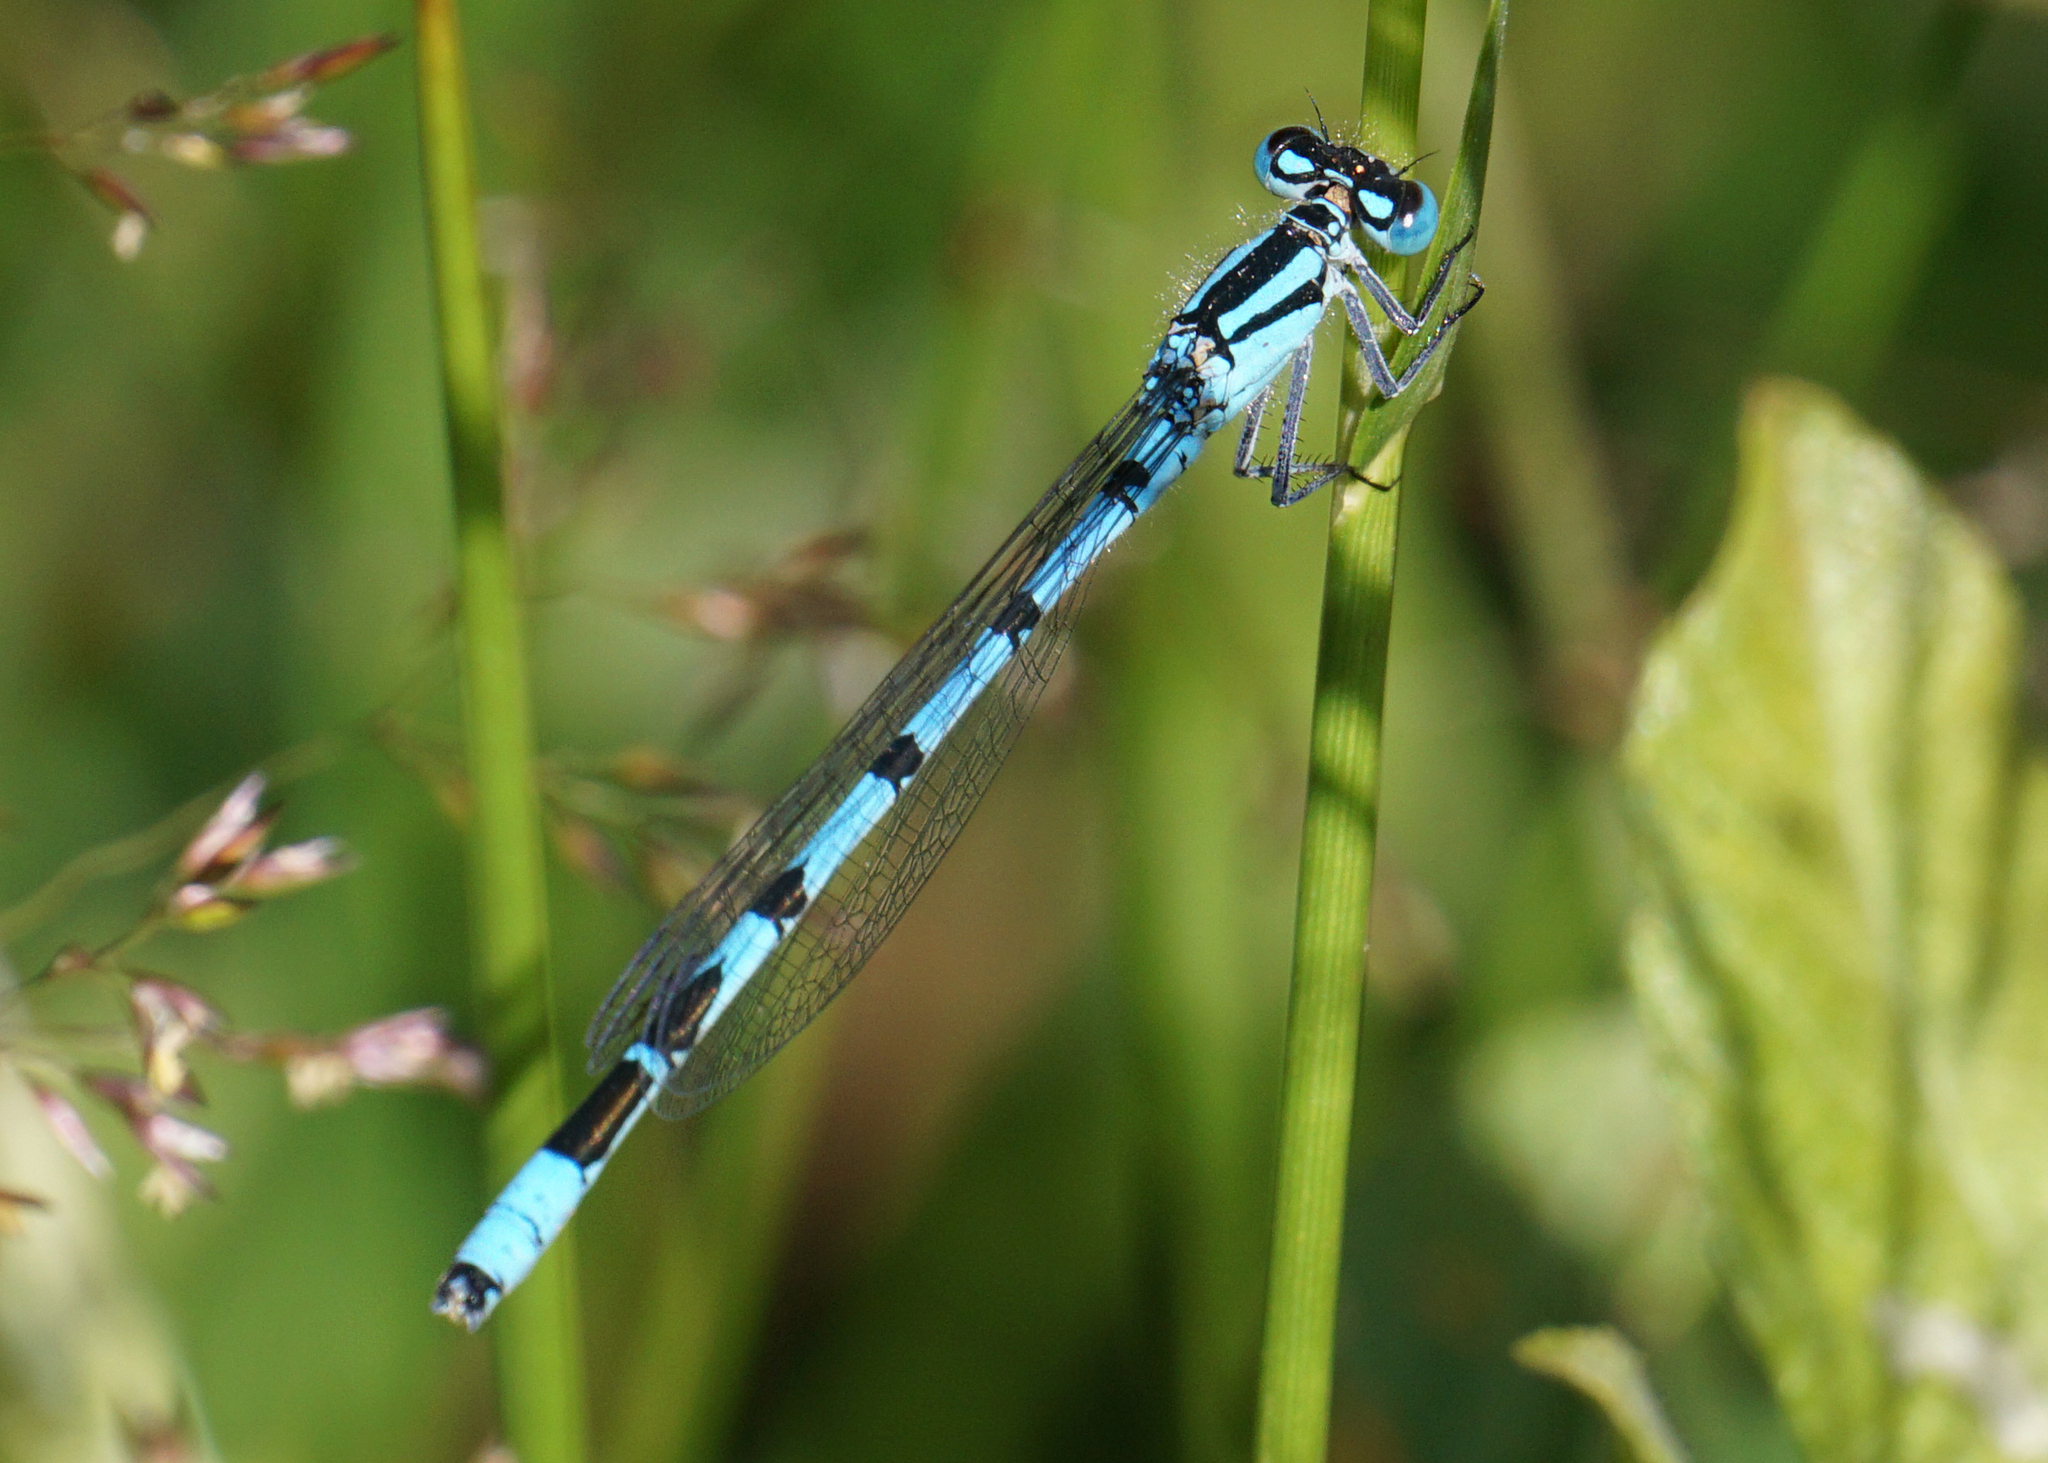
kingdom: Animalia
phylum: Arthropoda
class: Insecta
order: Odonata
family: Coenagrionidae
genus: Enallagma
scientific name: Enallagma cyathigerum
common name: Common blue damselfly
